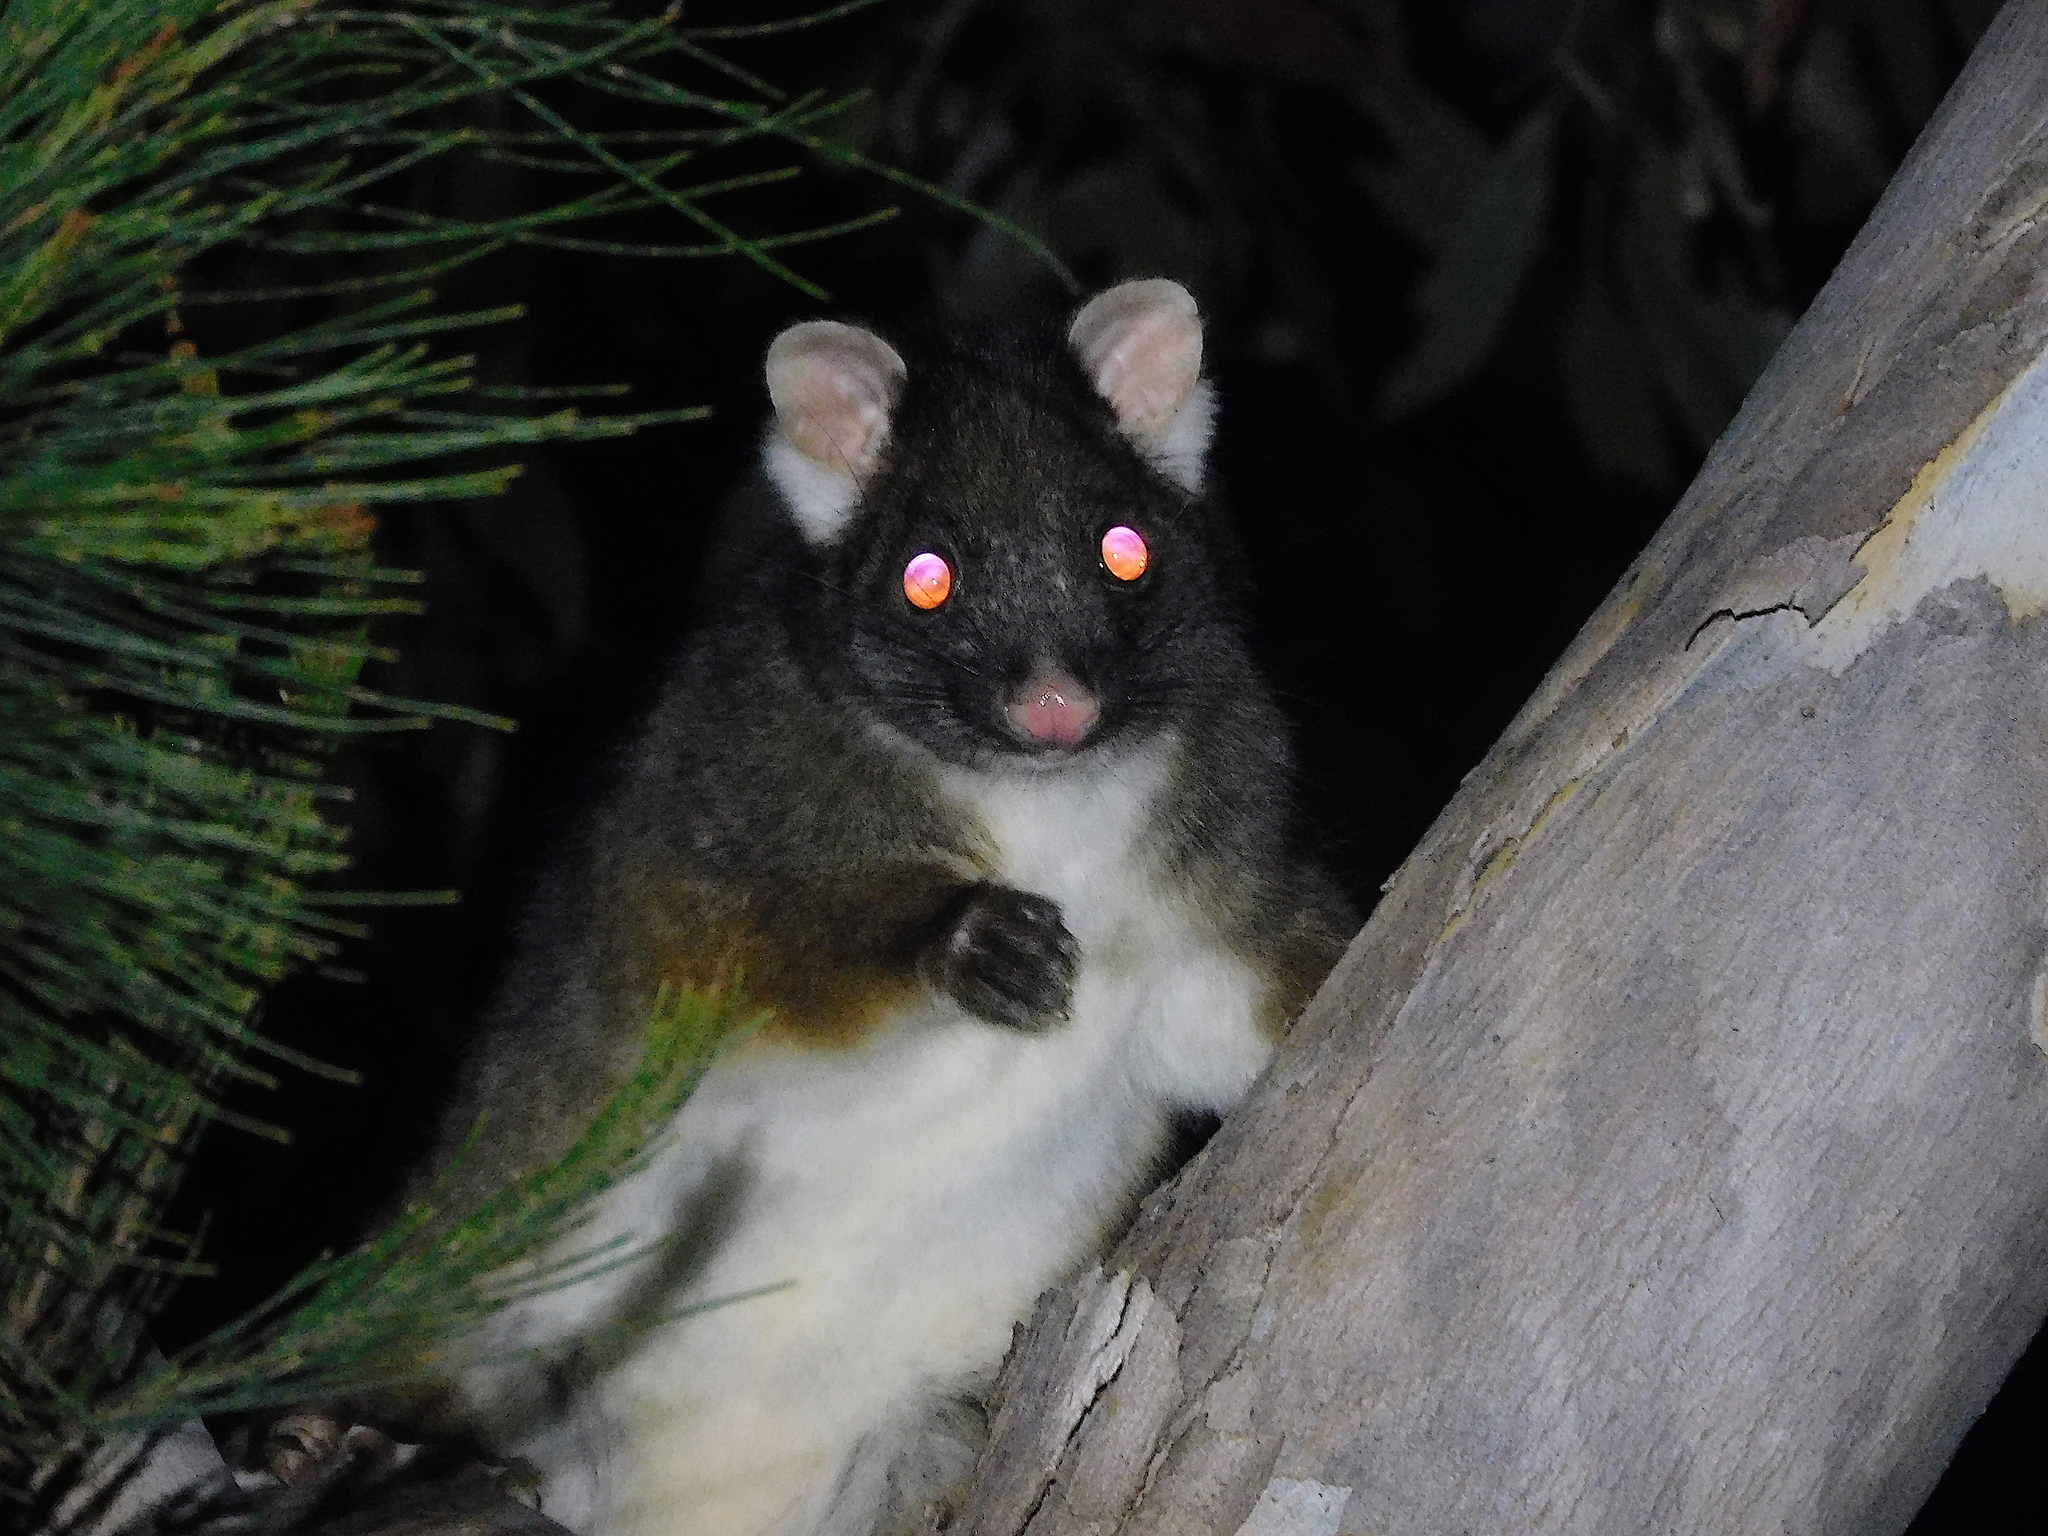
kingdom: Animalia
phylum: Chordata
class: Mammalia
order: Diprotodontia
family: Pseudocheiridae
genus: Pseudocheirus
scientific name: Pseudocheirus peregrinus
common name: Common ringtail possum
